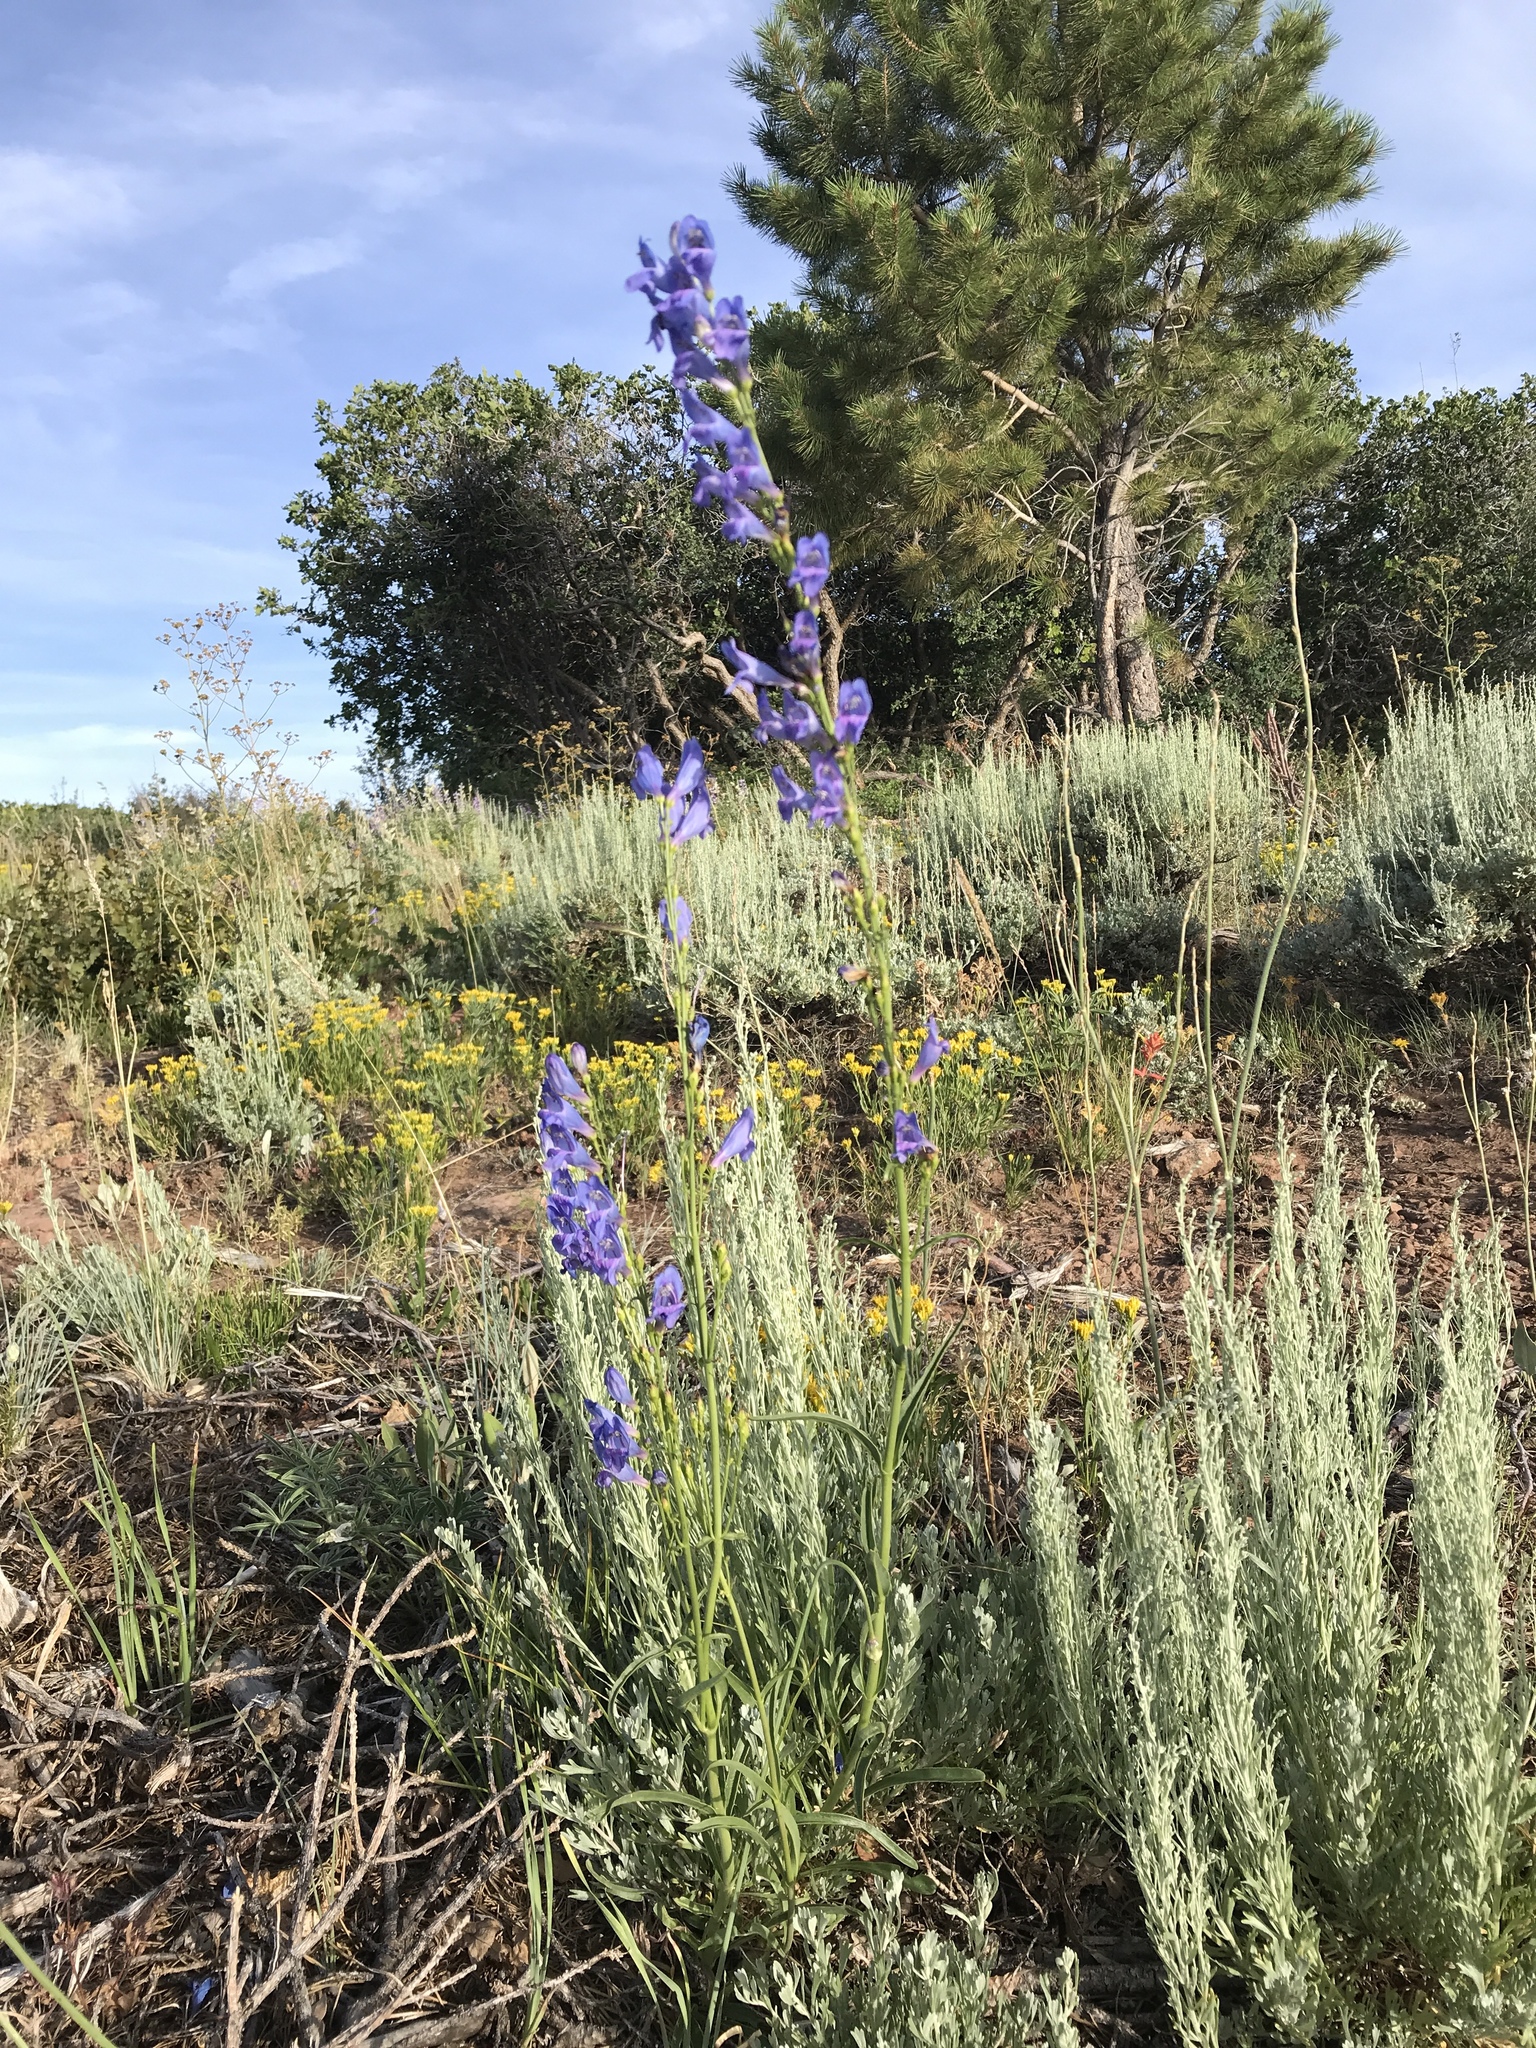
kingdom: Plantae
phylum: Tracheophyta
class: Magnoliopsida
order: Lamiales
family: Plantaginaceae
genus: Penstemon
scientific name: Penstemon strictus
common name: Rocky mountain penstemon
